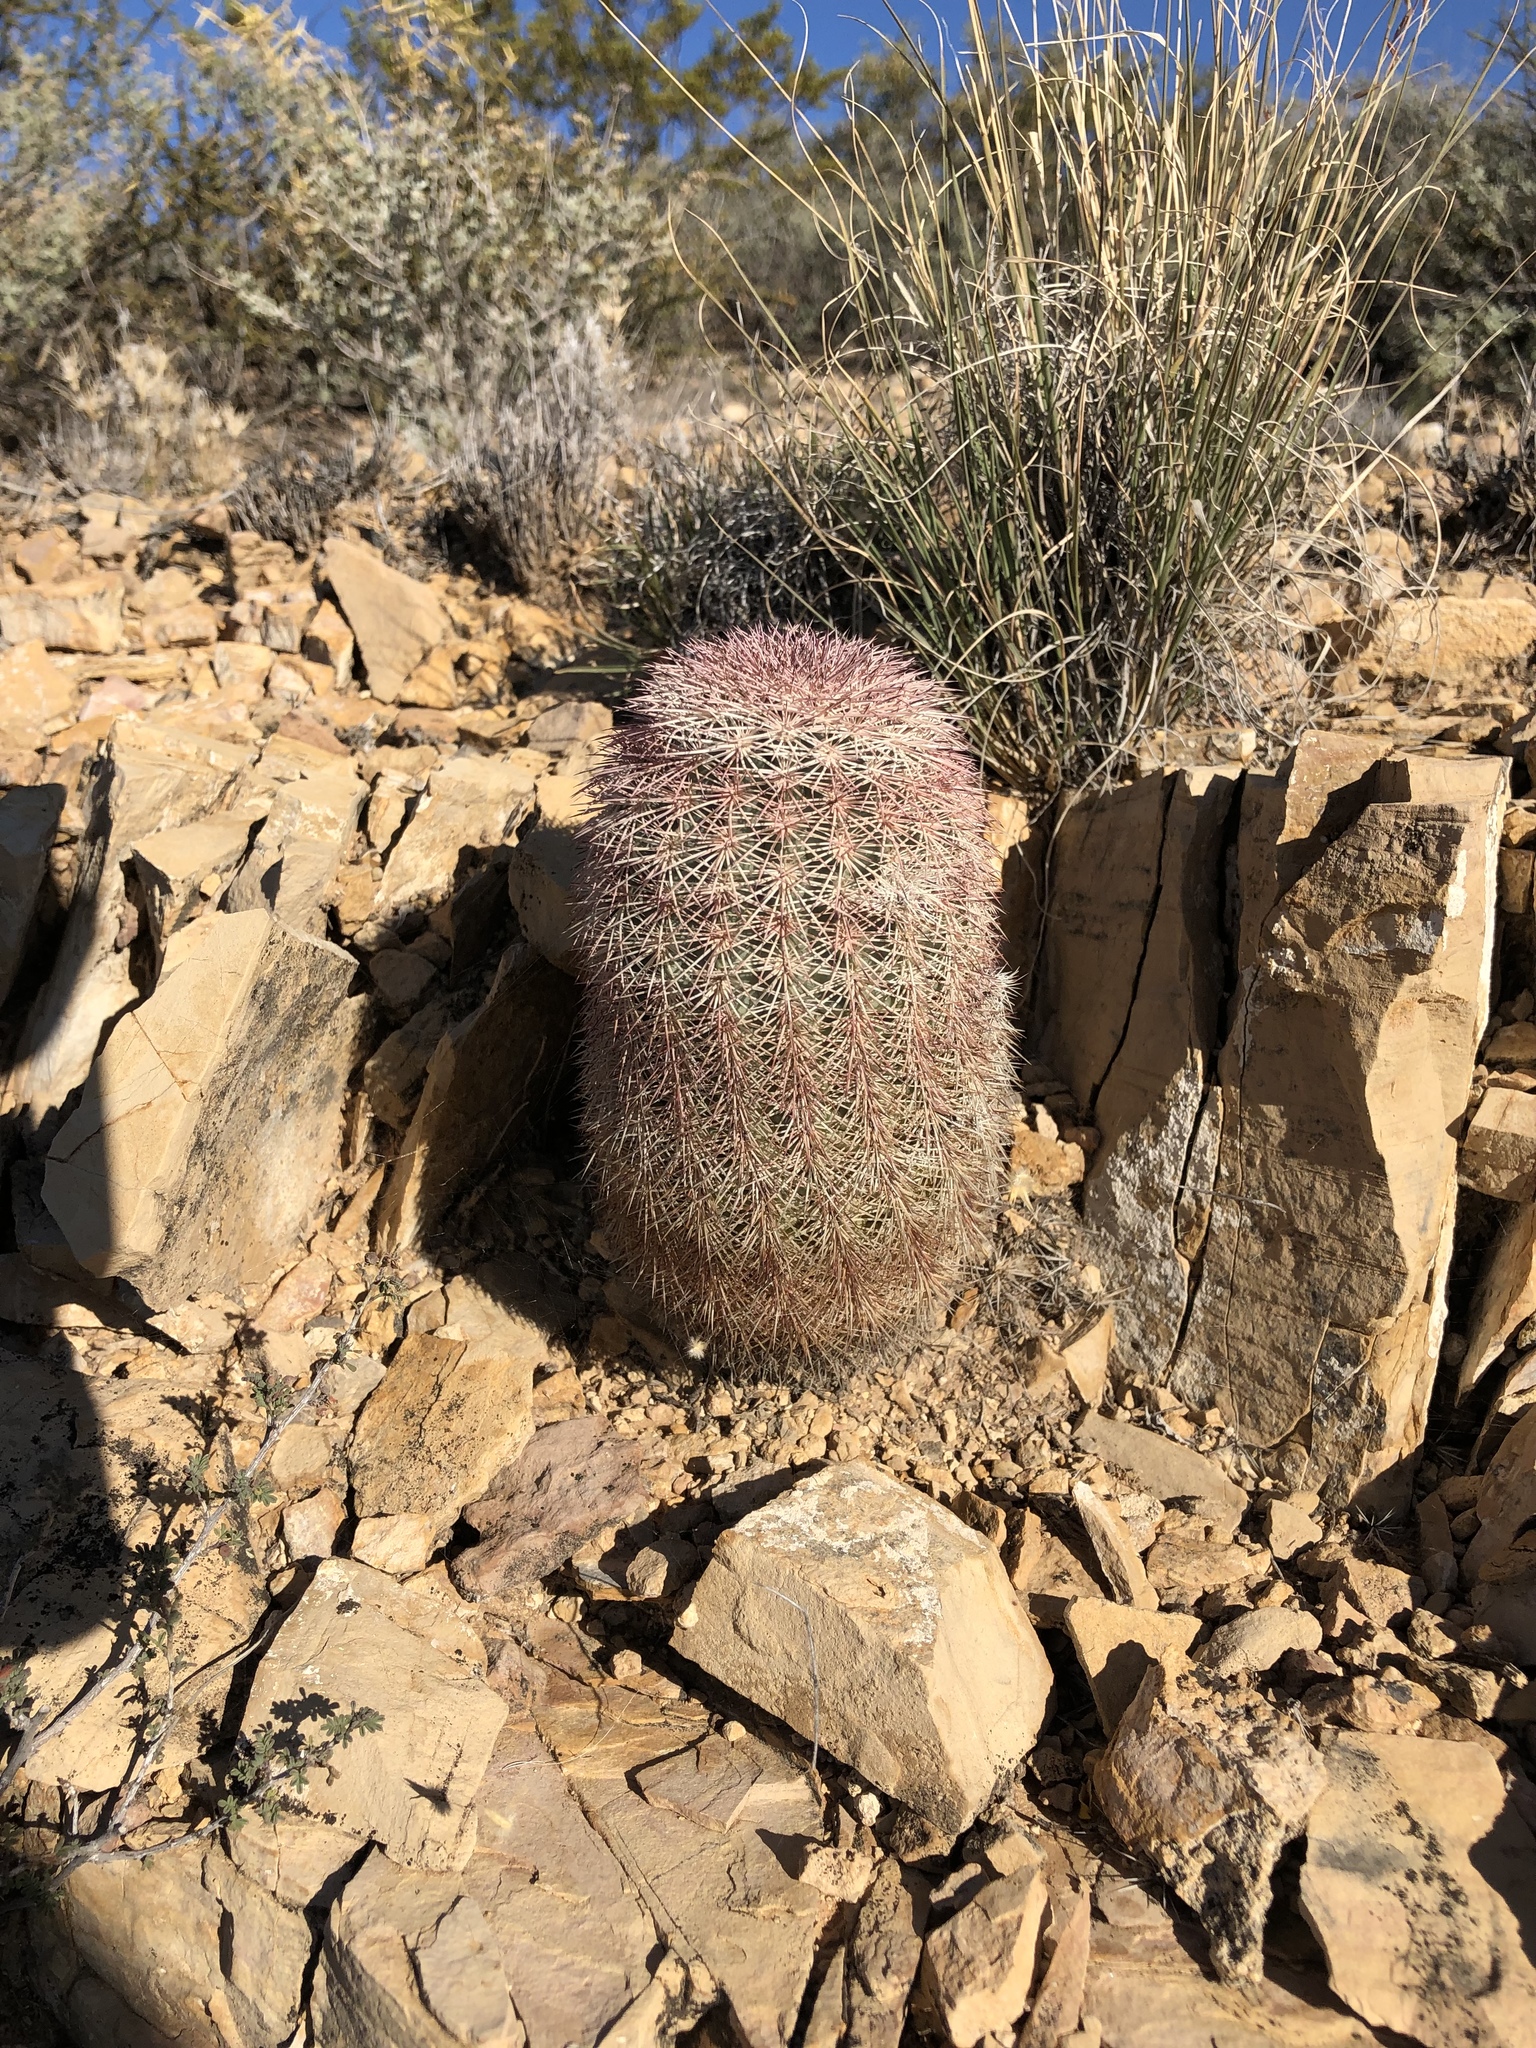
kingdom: Plantae
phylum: Tracheophyta
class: Magnoliopsida
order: Caryophyllales
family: Cactaceae
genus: Echinocereus
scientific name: Echinocereus dasyacanthus
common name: Spiny hedgehog cactus
